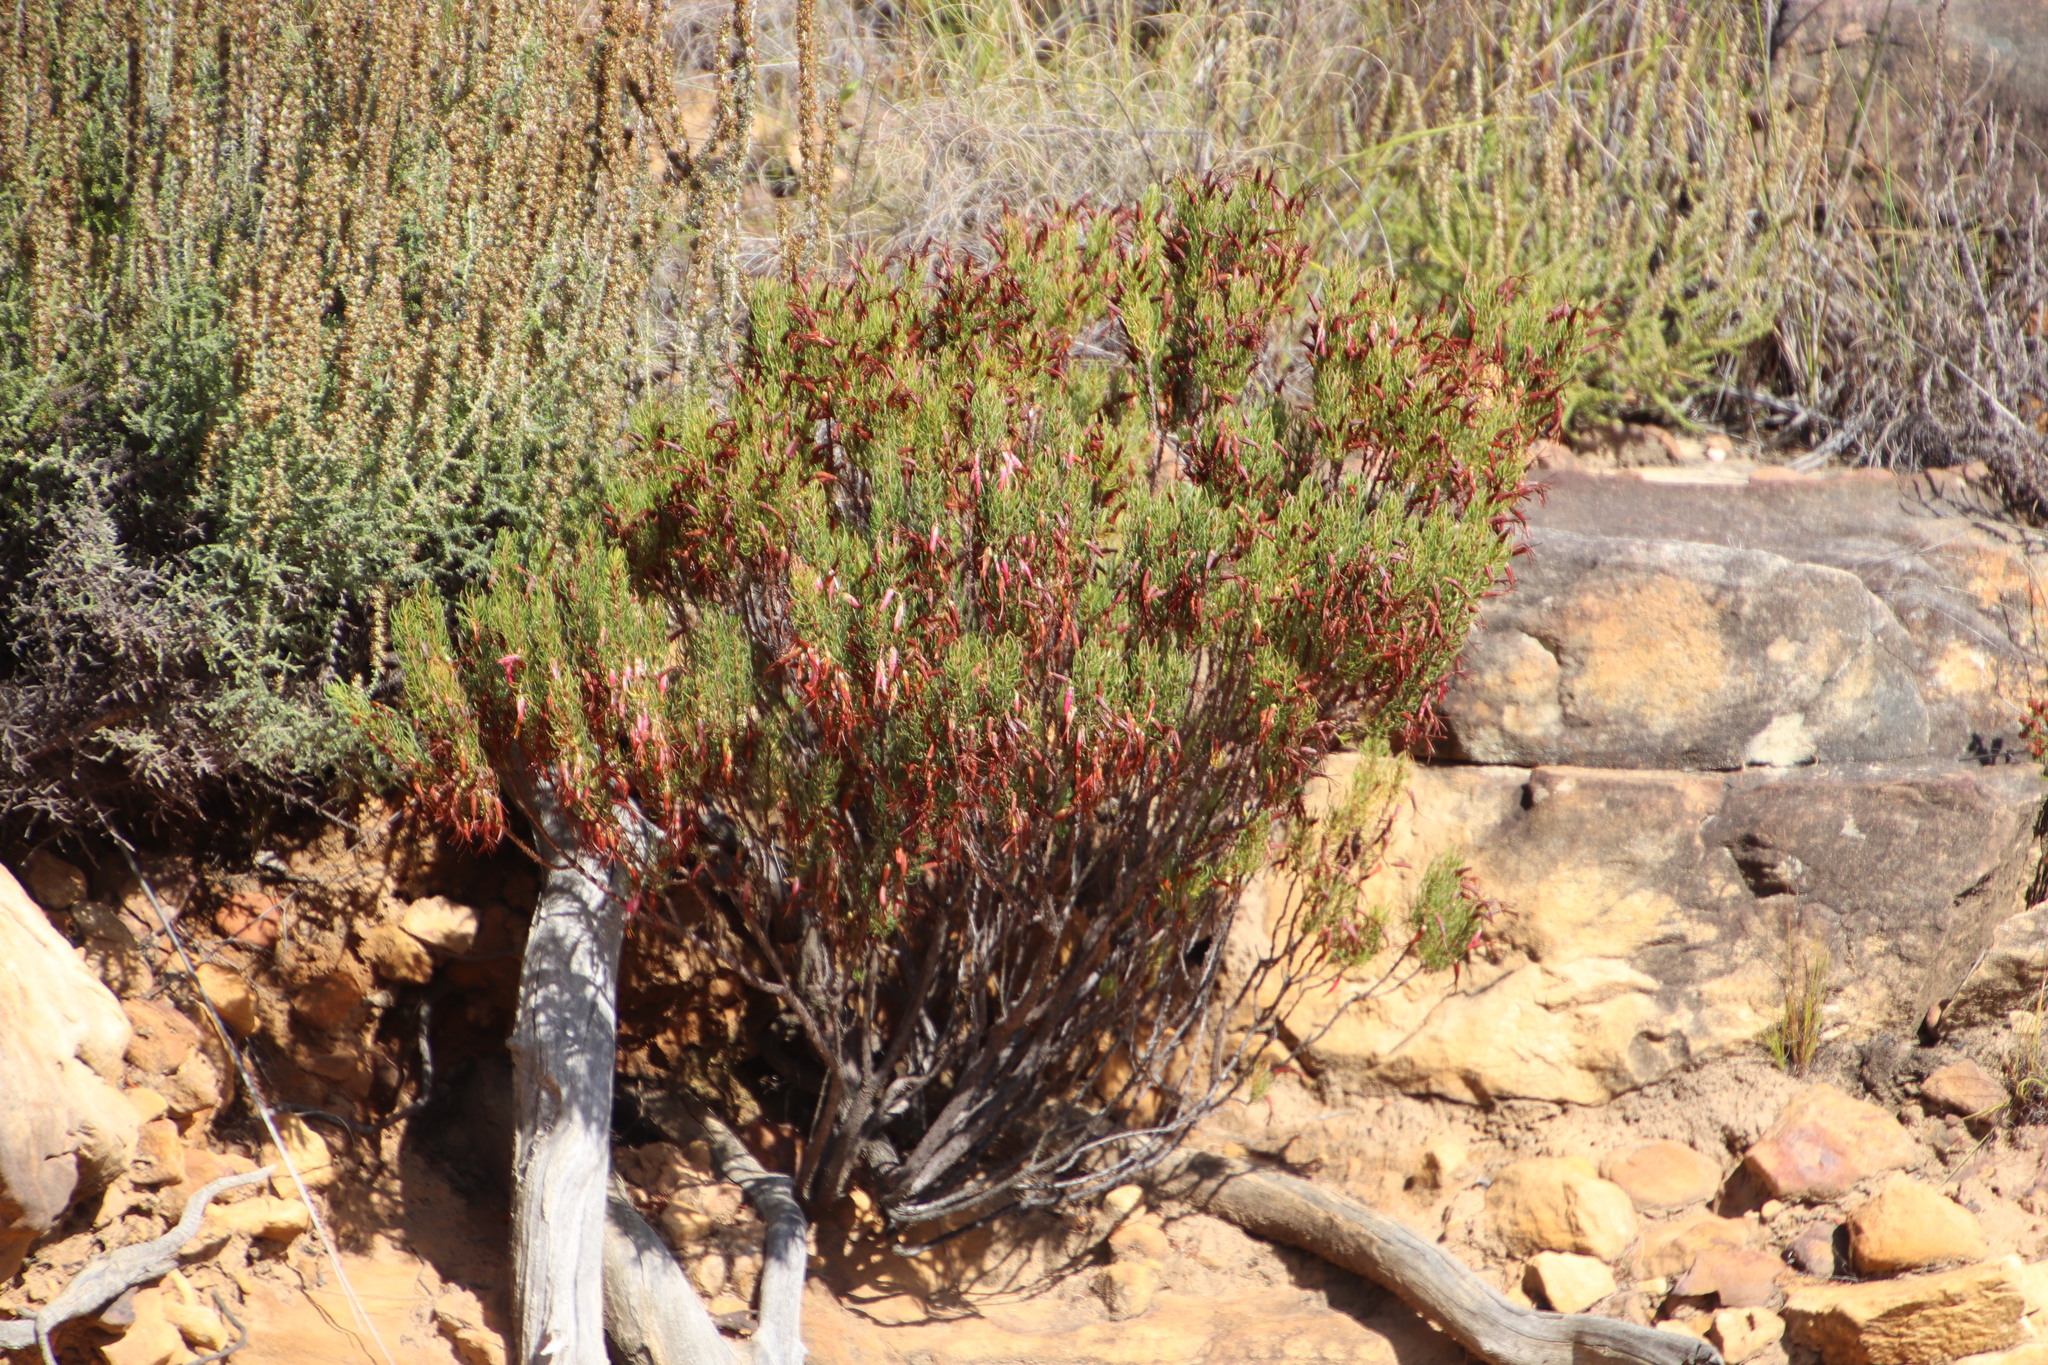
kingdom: Plantae
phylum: Tracheophyta
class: Magnoliopsida
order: Ericales
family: Ericaceae
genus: Erica
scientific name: Erica plukenetii
